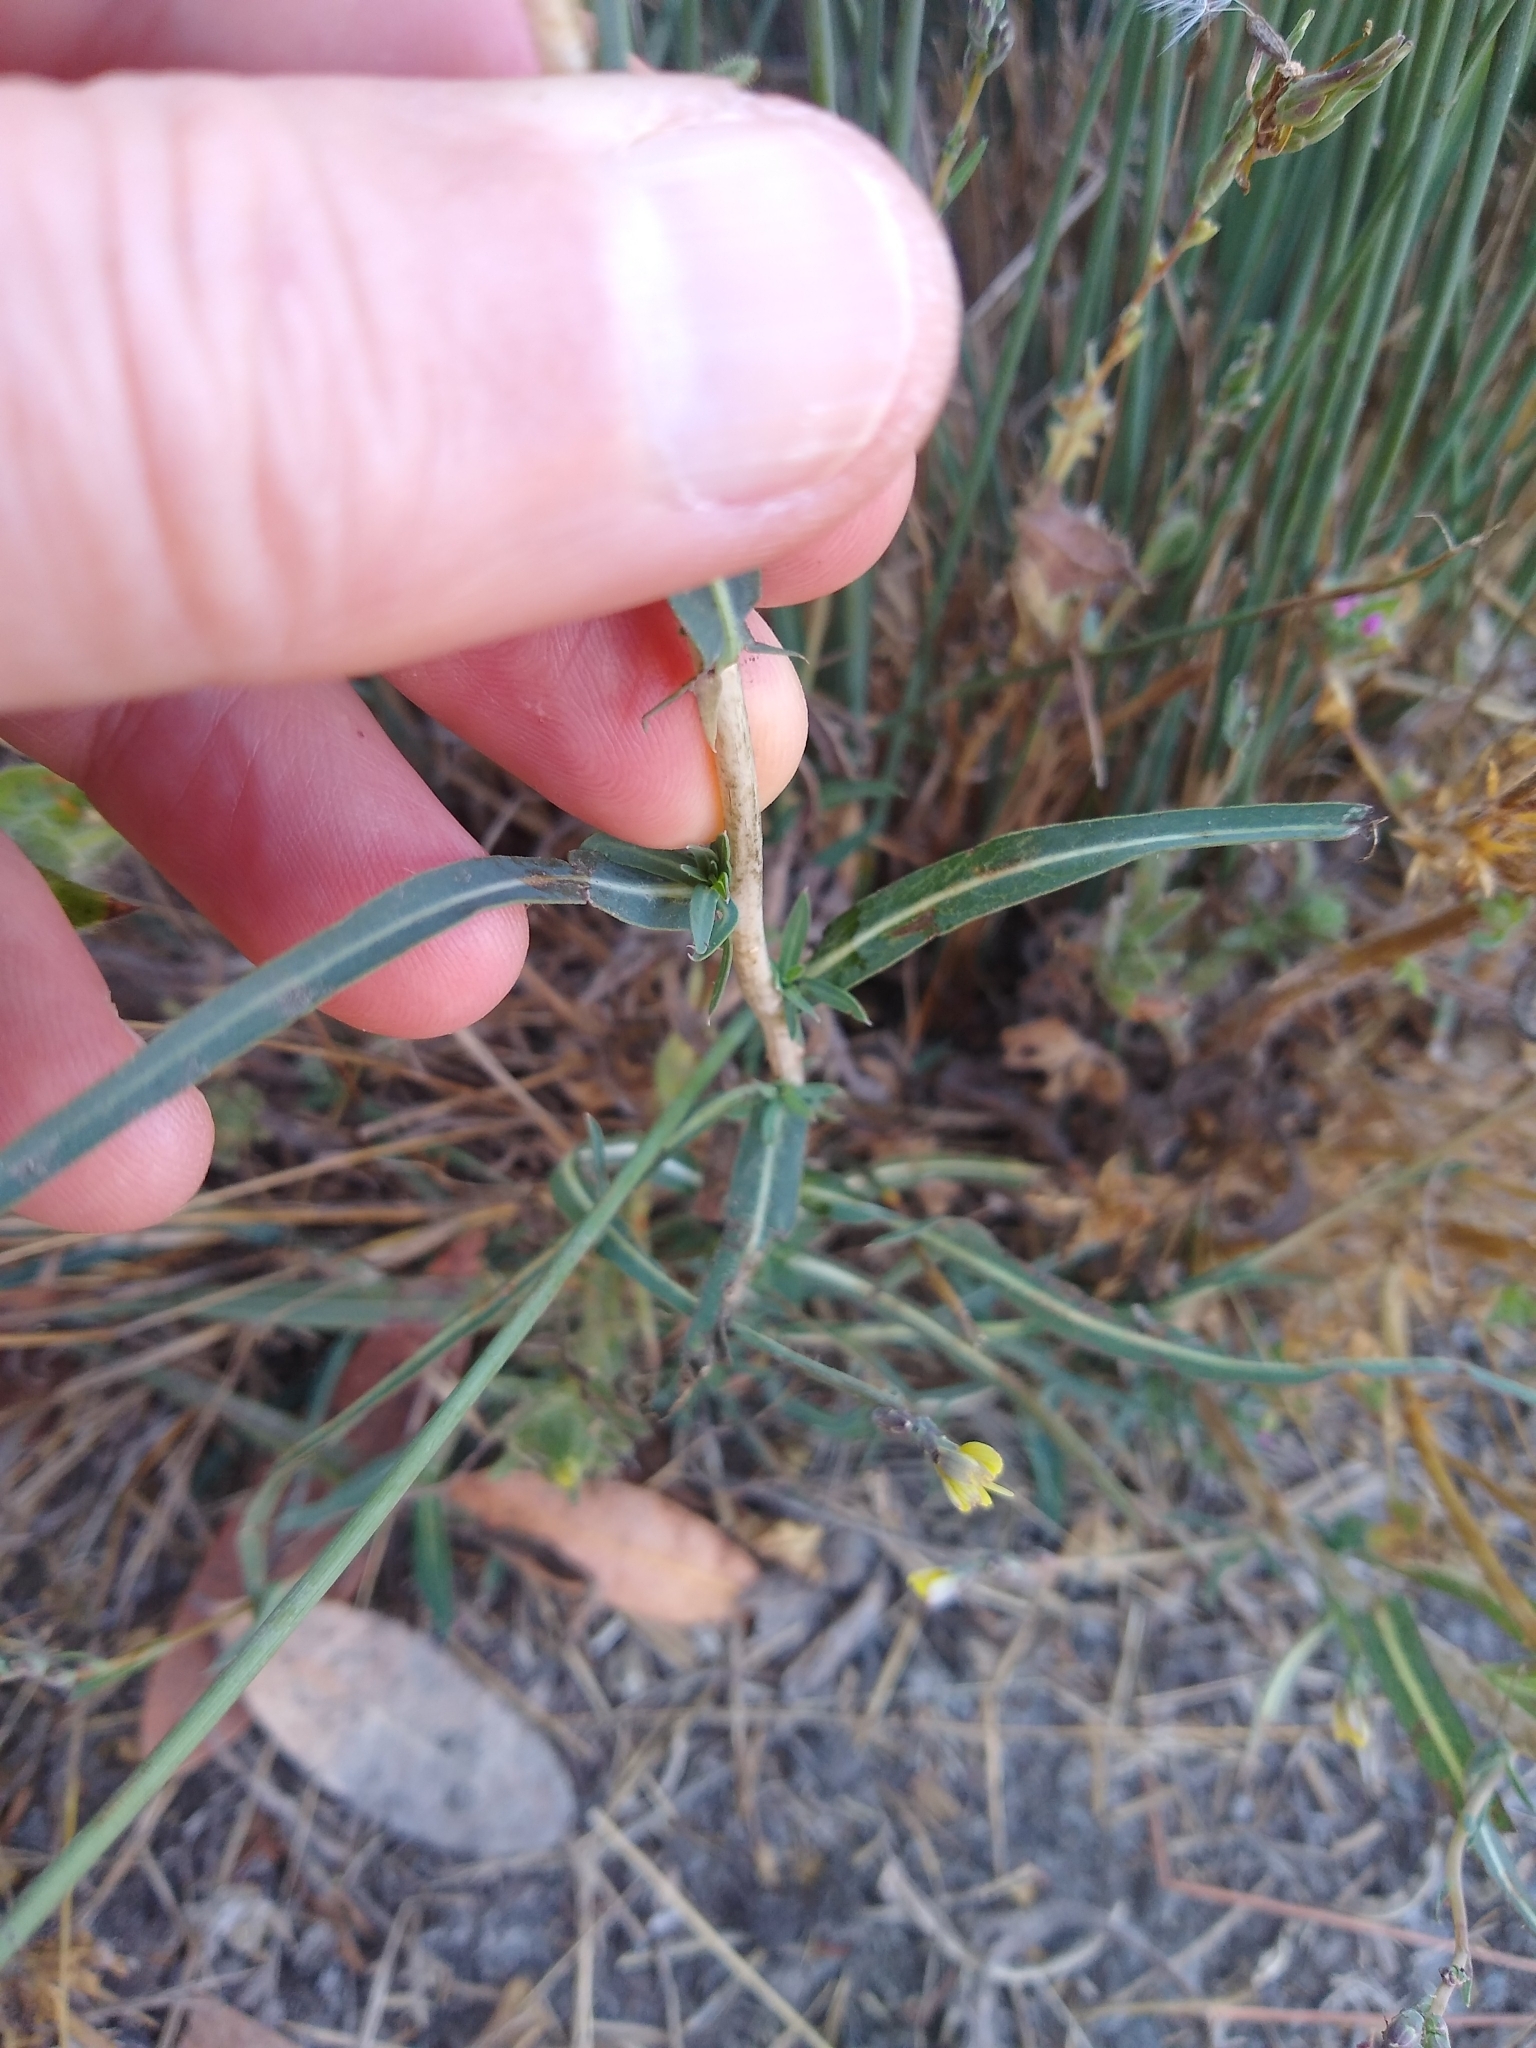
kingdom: Plantae
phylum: Tracheophyta
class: Magnoliopsida
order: Asterales
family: Asteraceae
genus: Lactuca
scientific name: Lactuca saligna
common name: Wild lettuce
